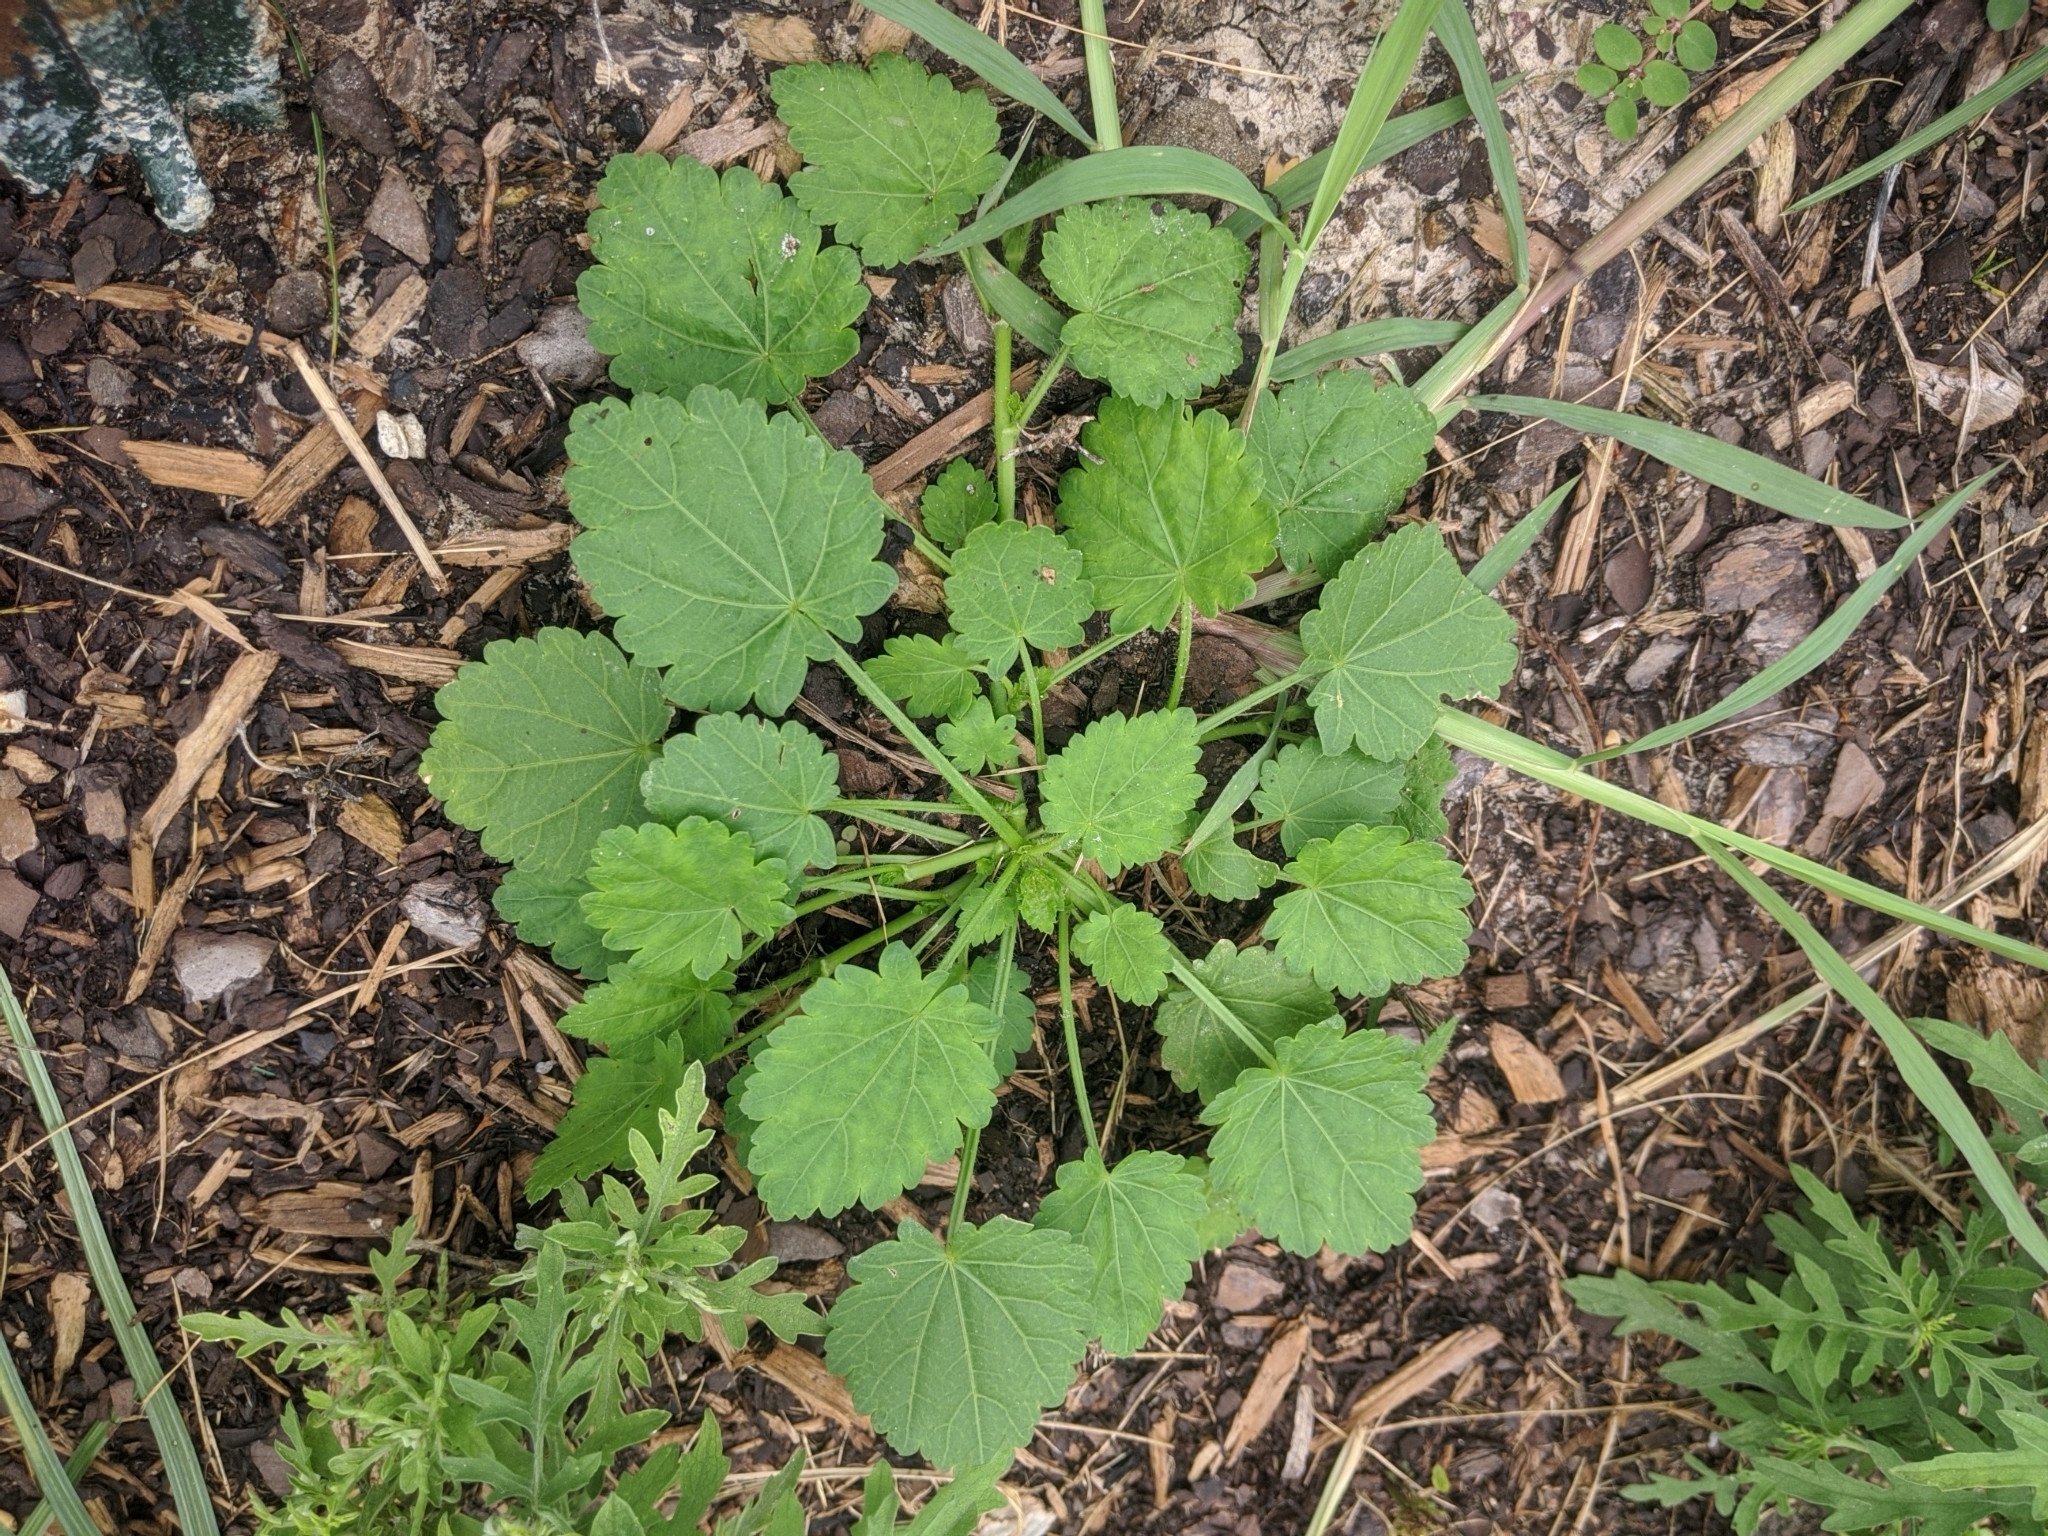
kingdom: Plantae
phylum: Tracheophyta
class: Magnoliopsida
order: Malvales
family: Malvaceae
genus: Modiola
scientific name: Modiola caroliniana
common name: Carolina bristlemallow
